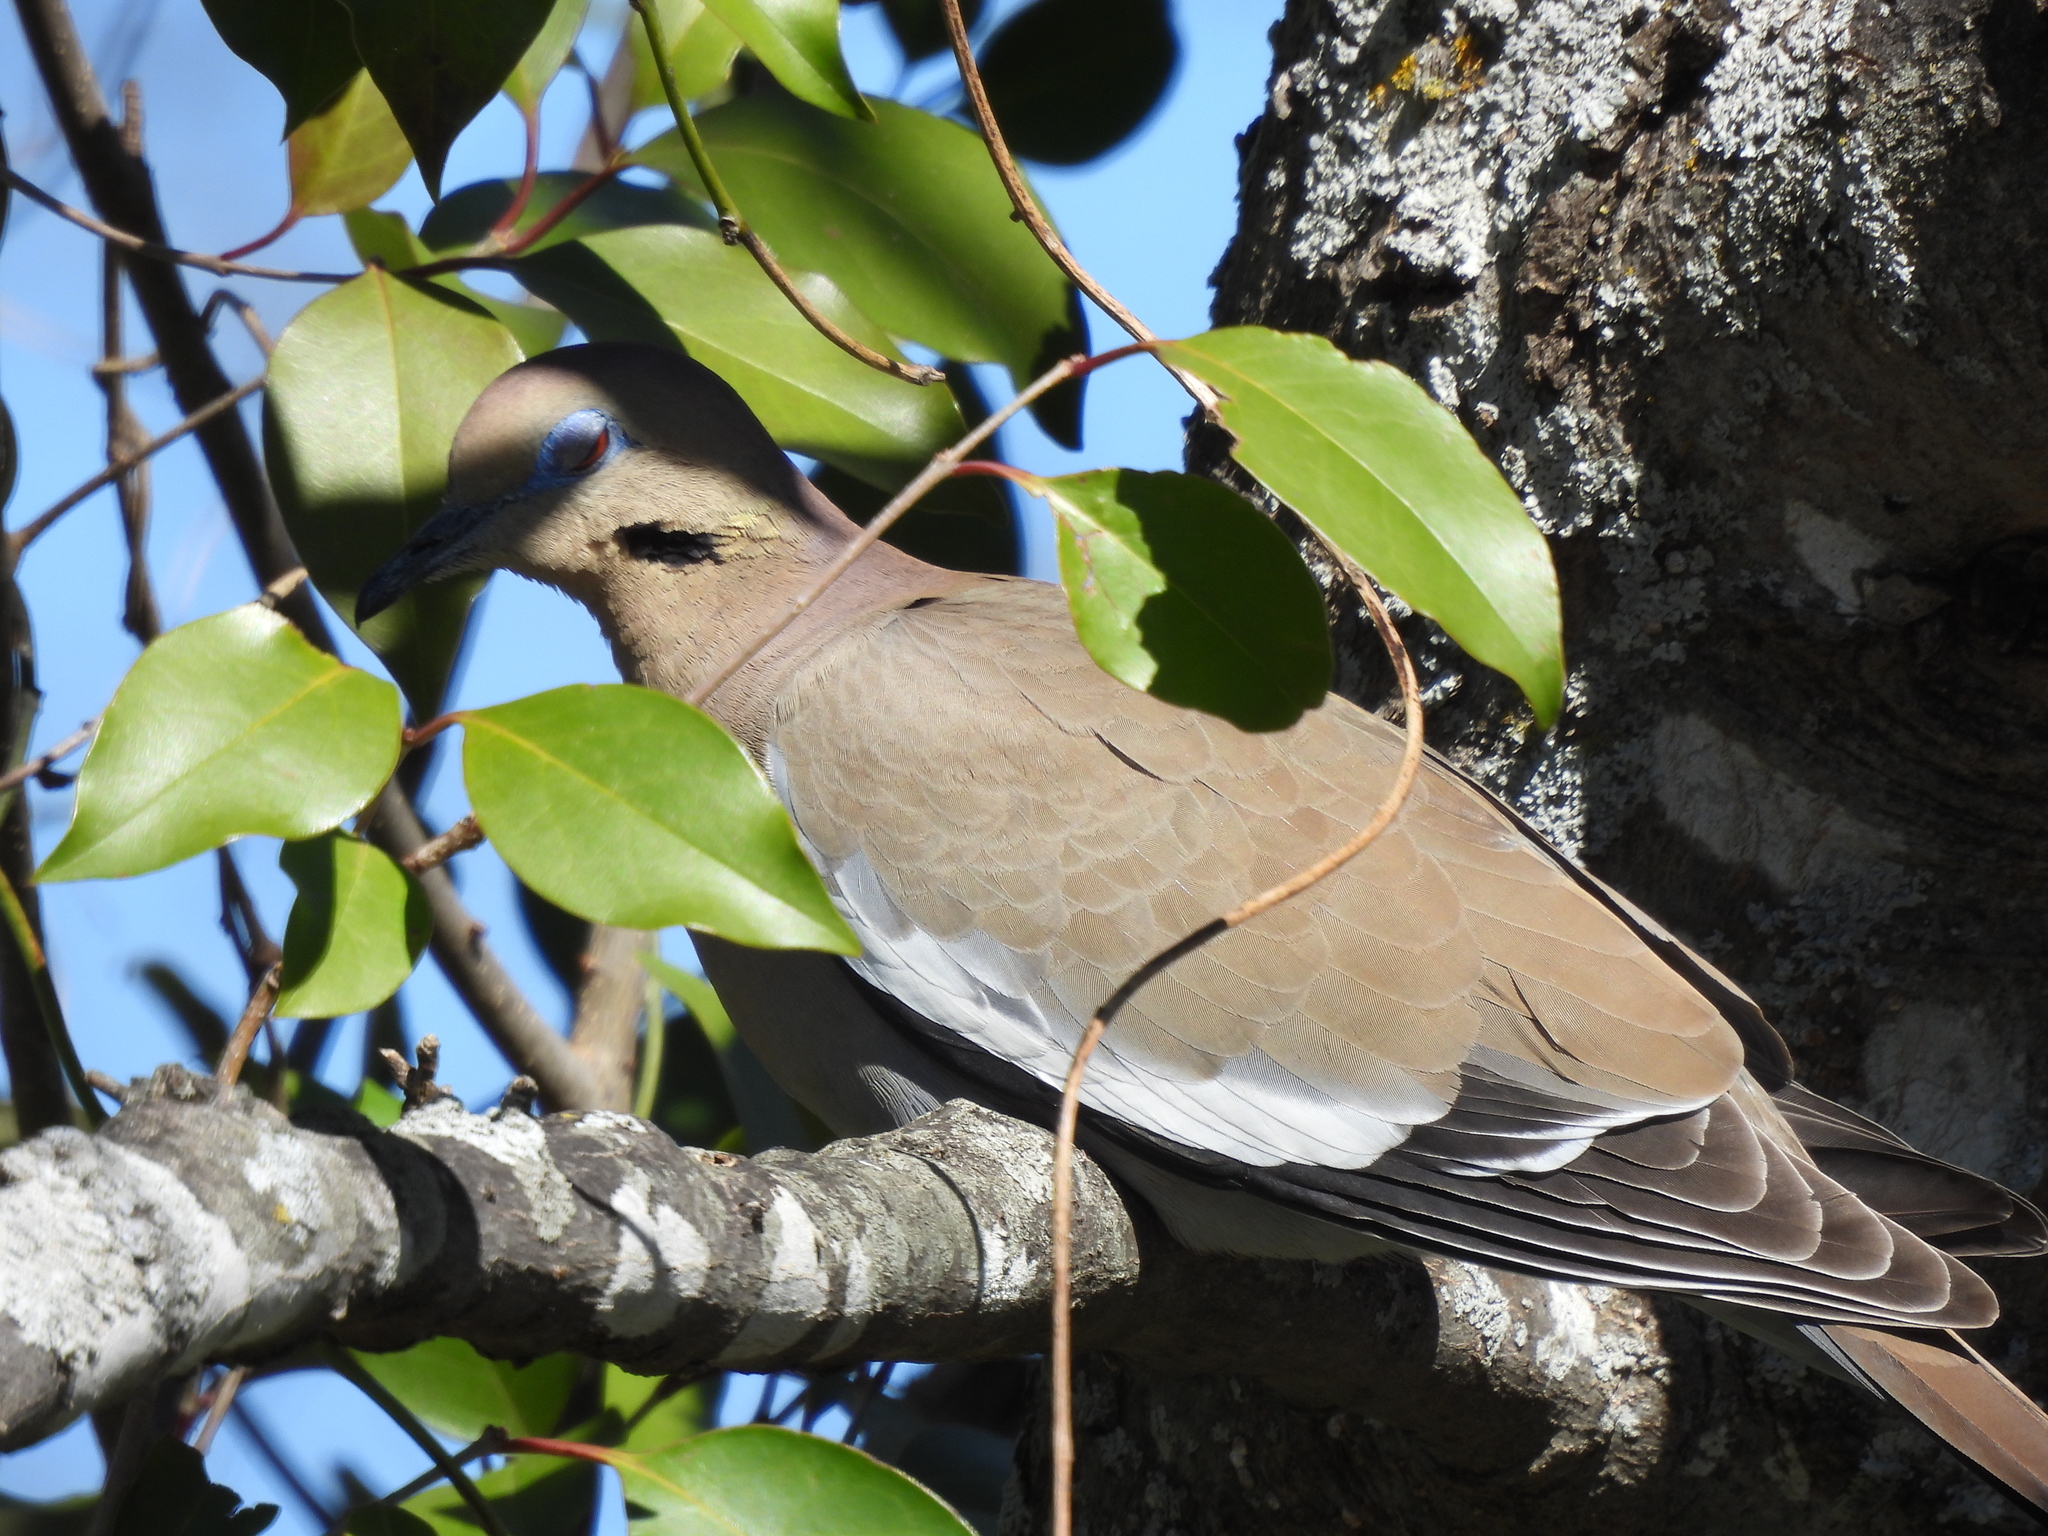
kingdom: Animalia
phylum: Chordata
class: Aves
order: Columbiformes
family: Columbidae
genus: Zenaida
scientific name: Zenaida asiatica
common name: White-winged dove
